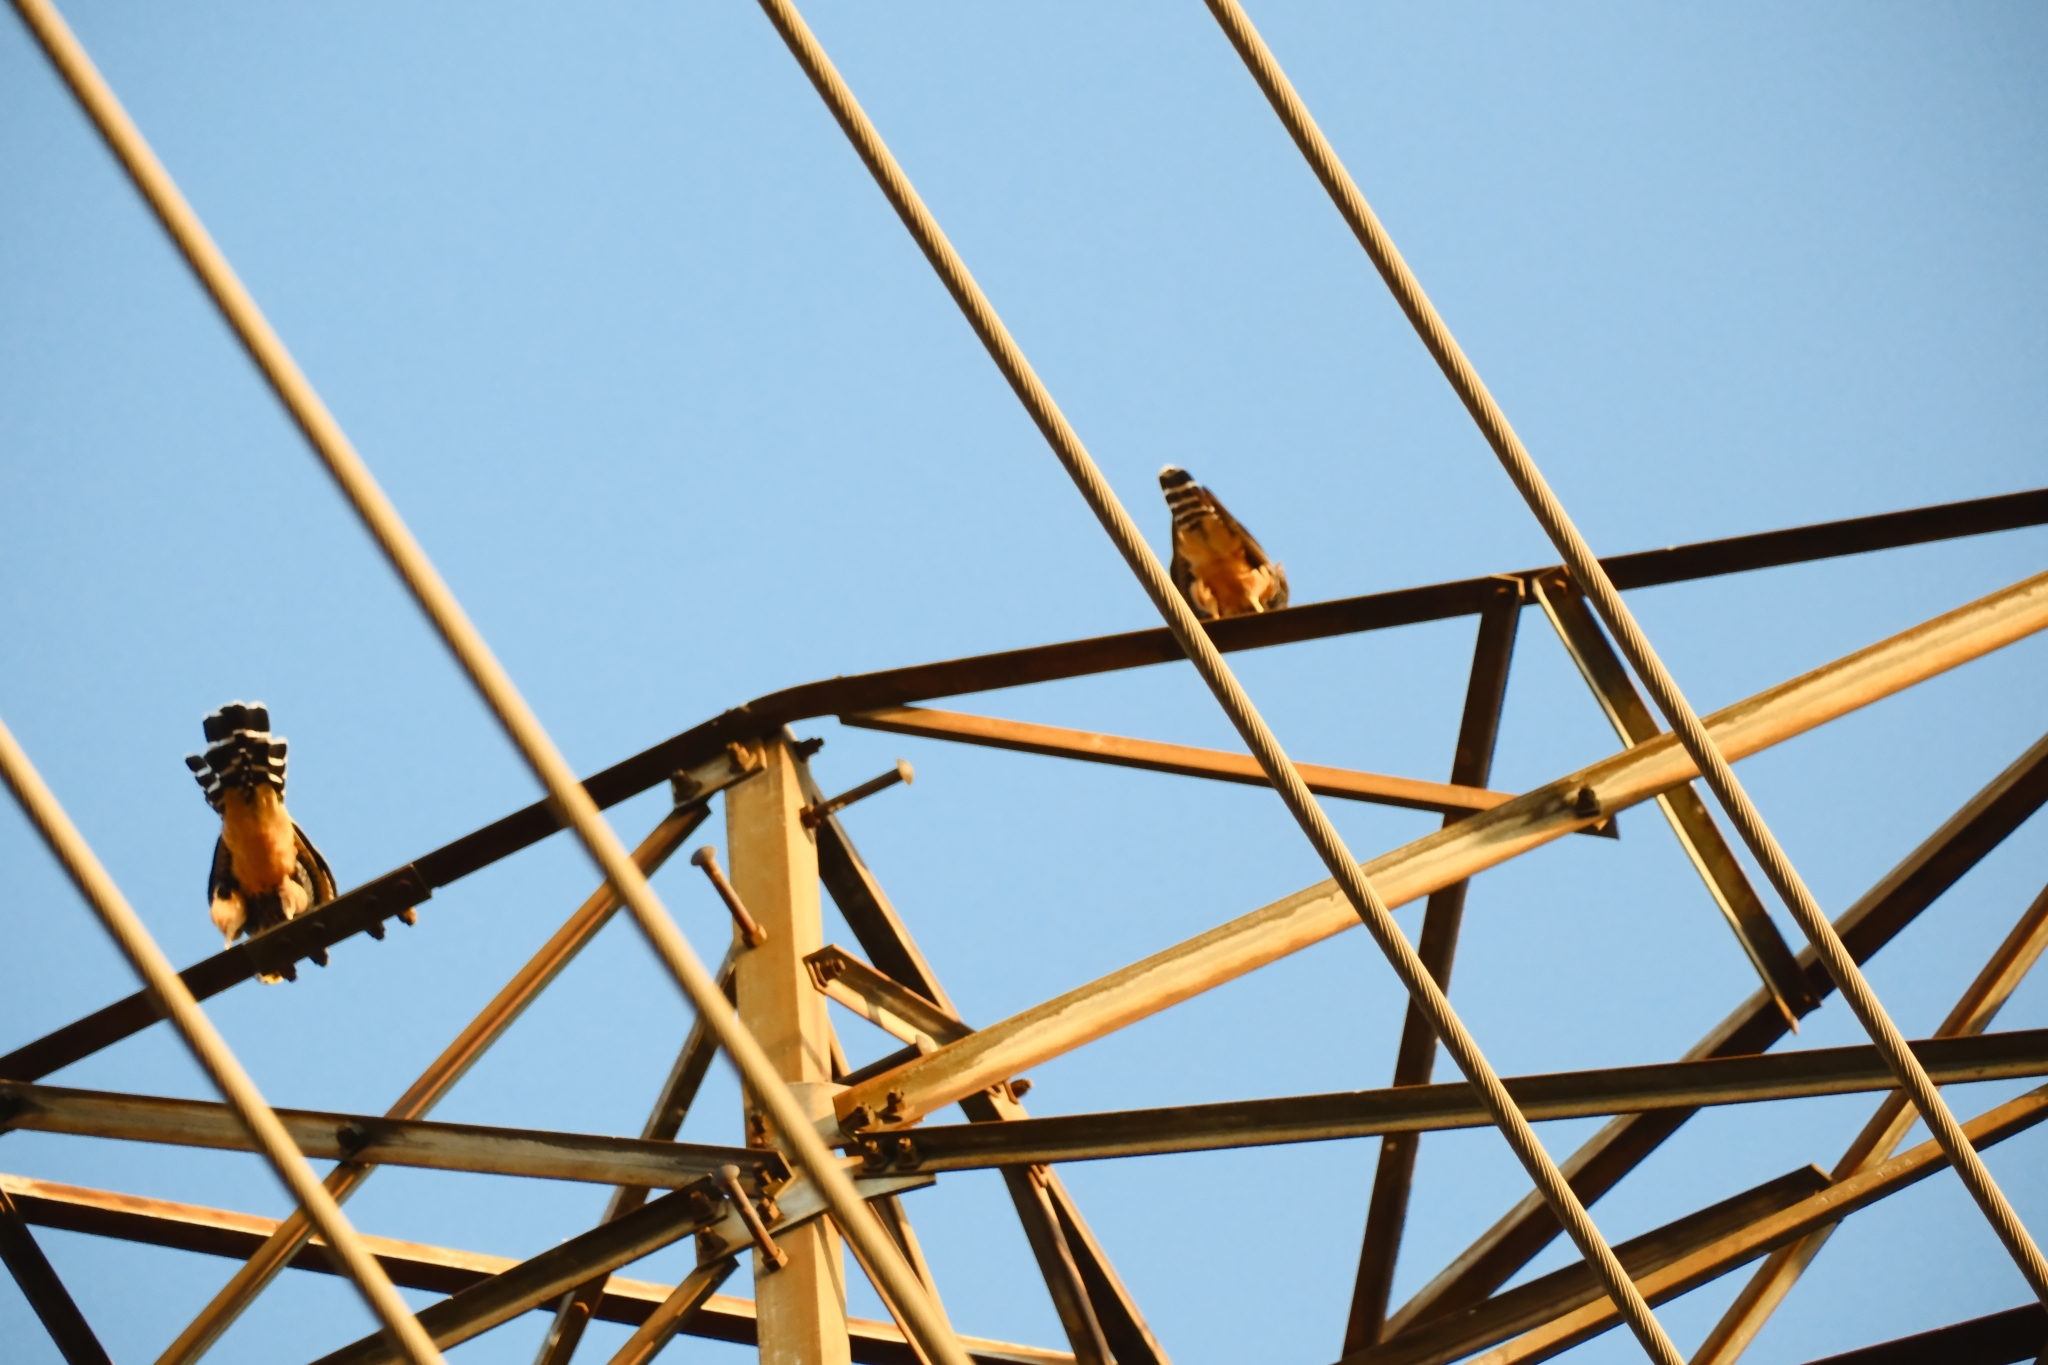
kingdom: Animalia
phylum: Chordata
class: Aves
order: Falconiformes
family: Falconidae
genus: Falco
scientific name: Falco femoralis
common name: Aplomado falcon
